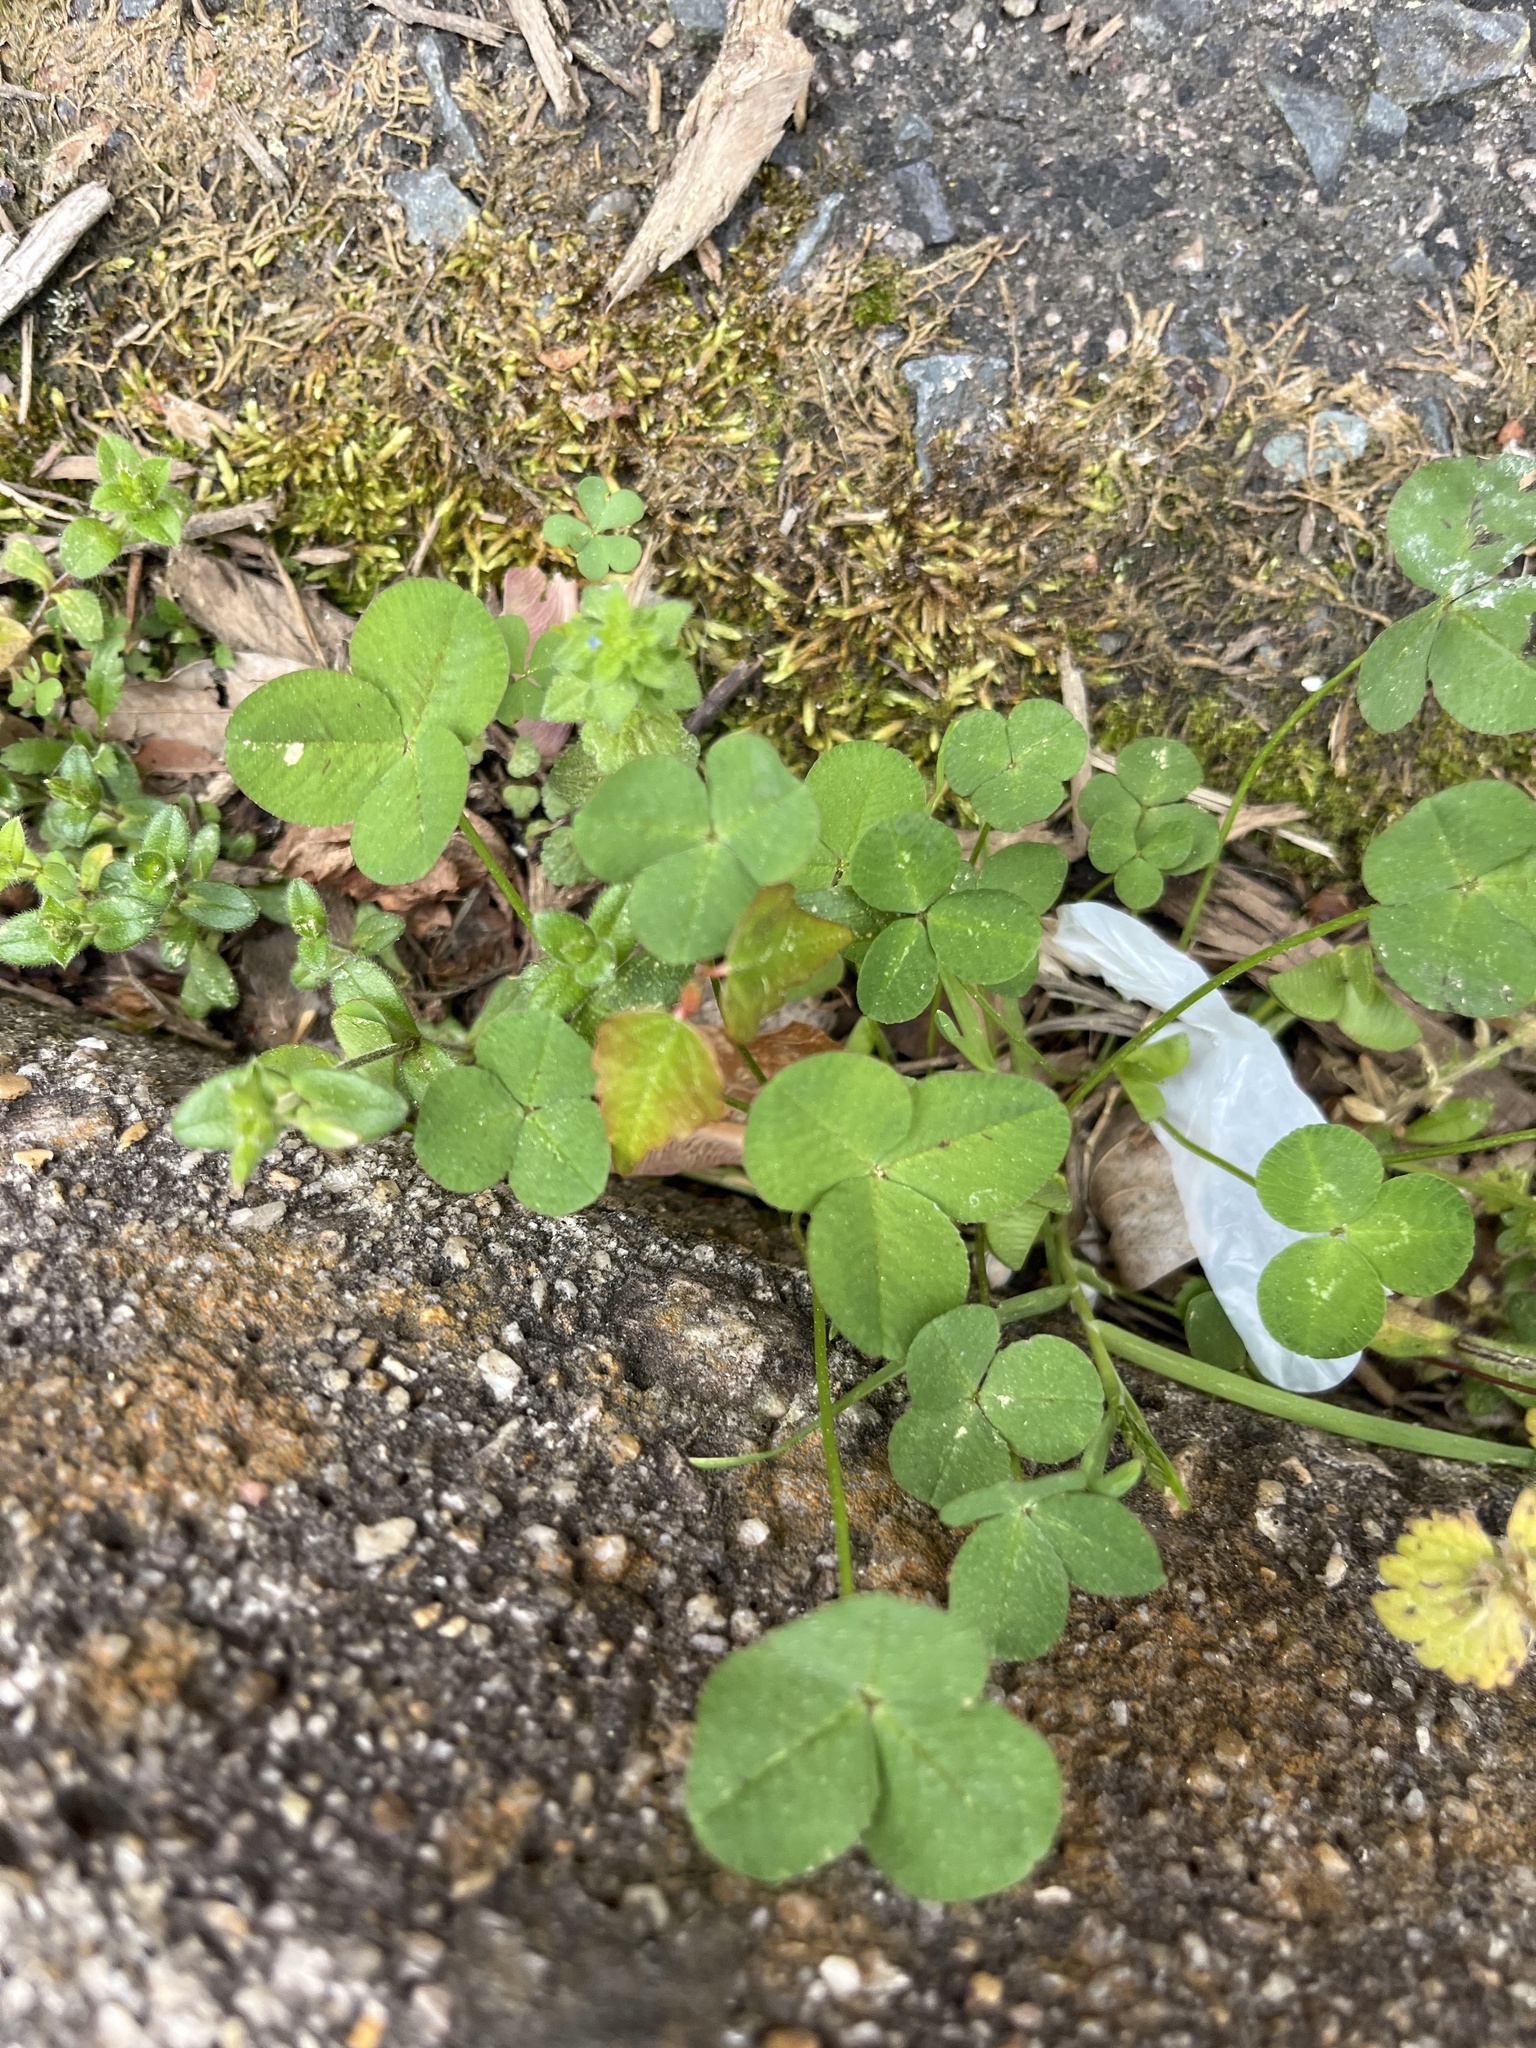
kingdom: Plantae
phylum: Tracheophyta
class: Magnoliopsida
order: Fabales
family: Fabaceae
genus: Trifolium
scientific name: Trifolium repens
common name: White clover
